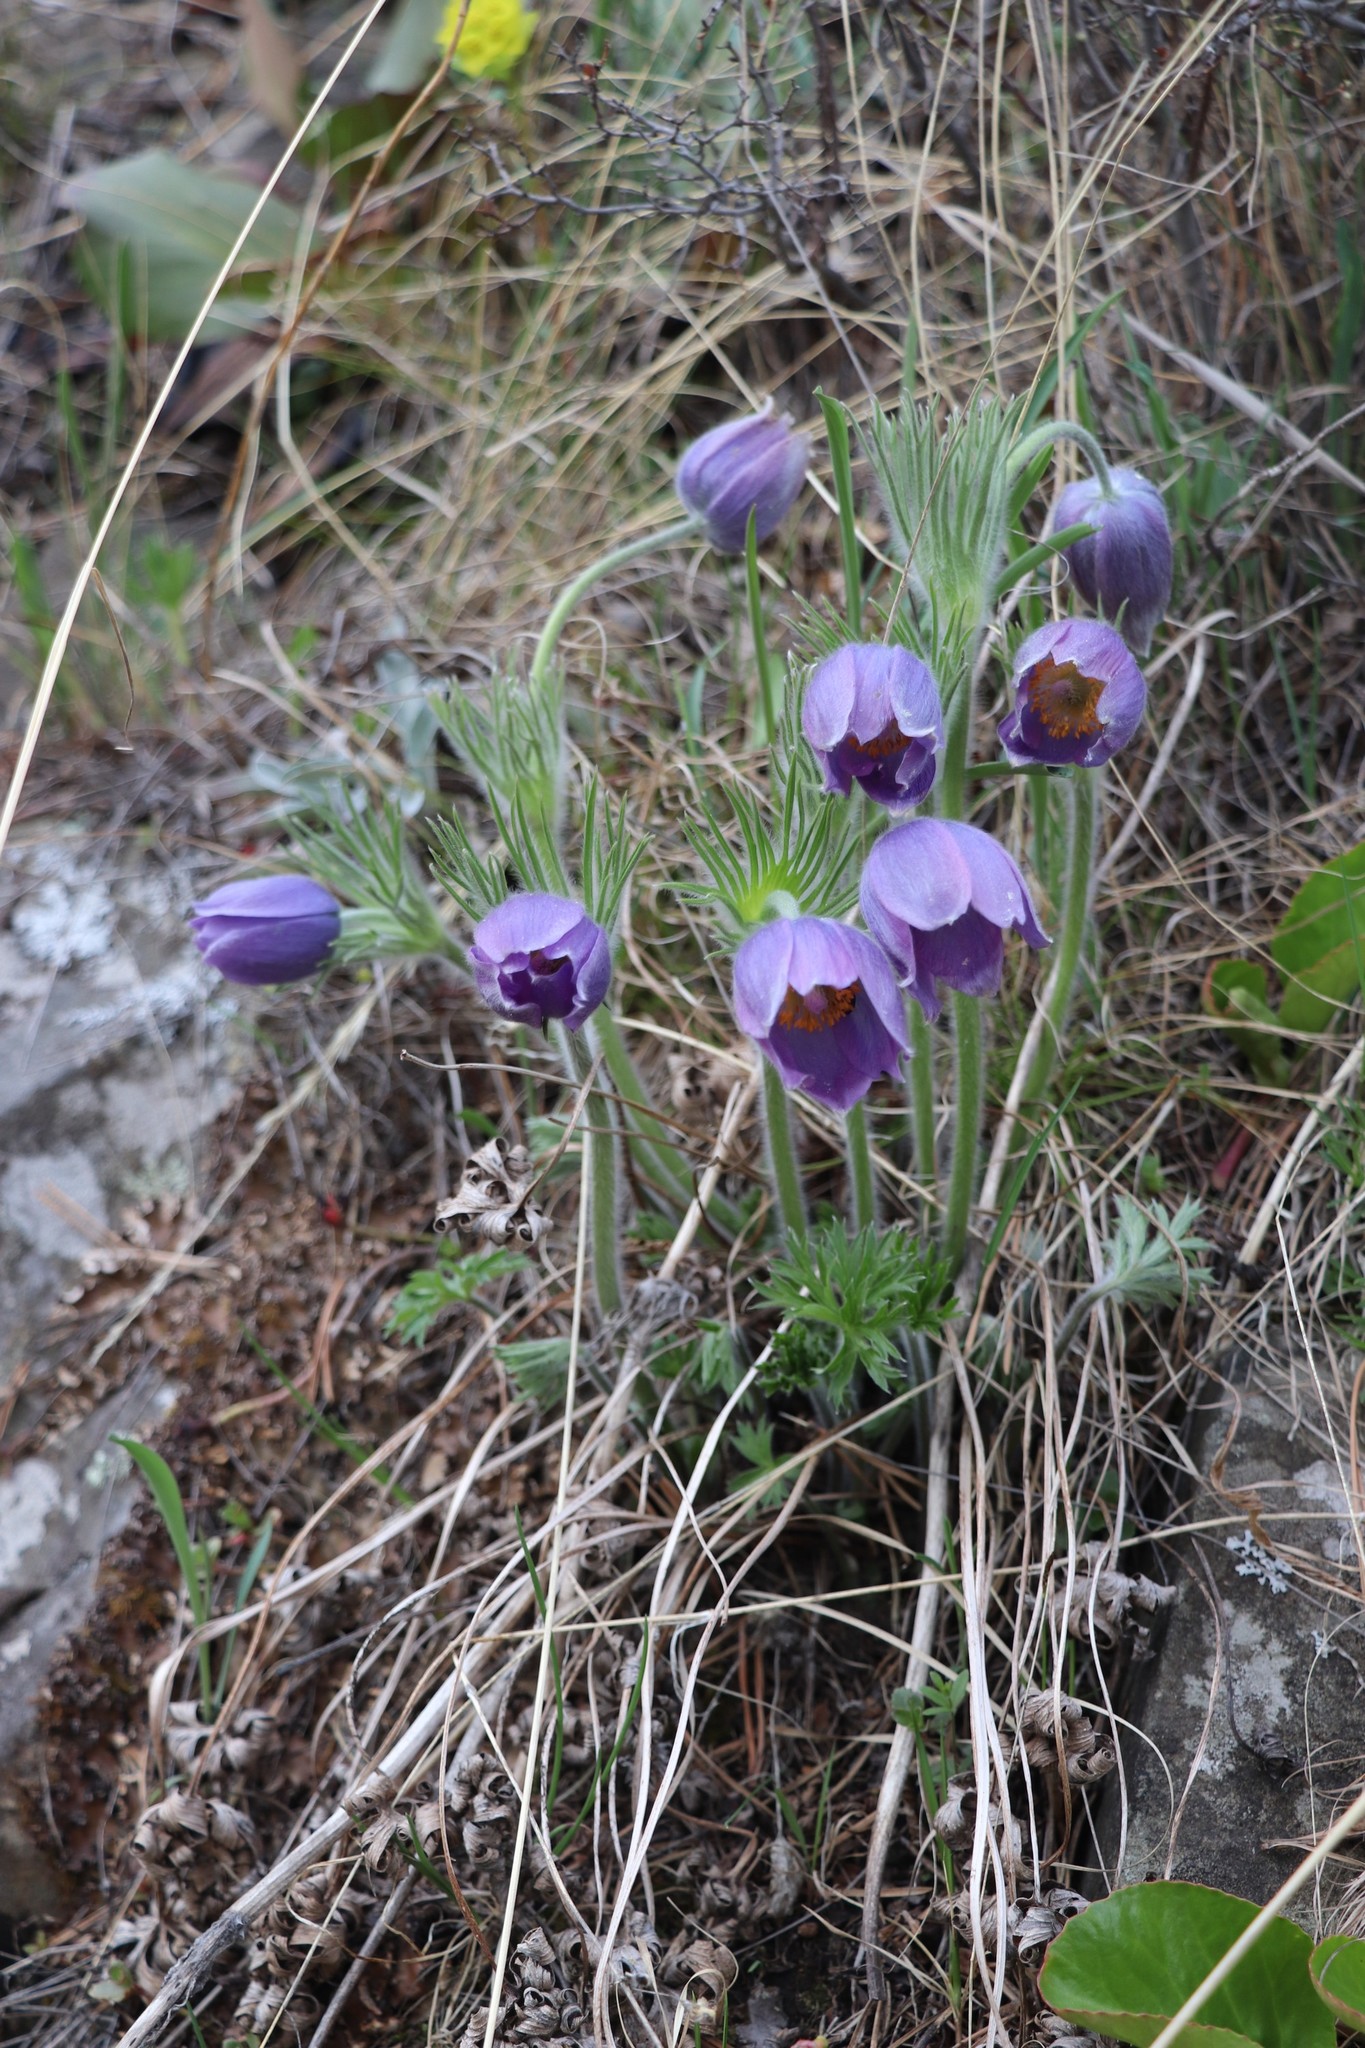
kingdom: Plantae
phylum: Tracheophyta
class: Magnoliopsida
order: Ranunculales
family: Ranunculaceae
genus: Pulsatilla
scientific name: Pulsatilla patens
